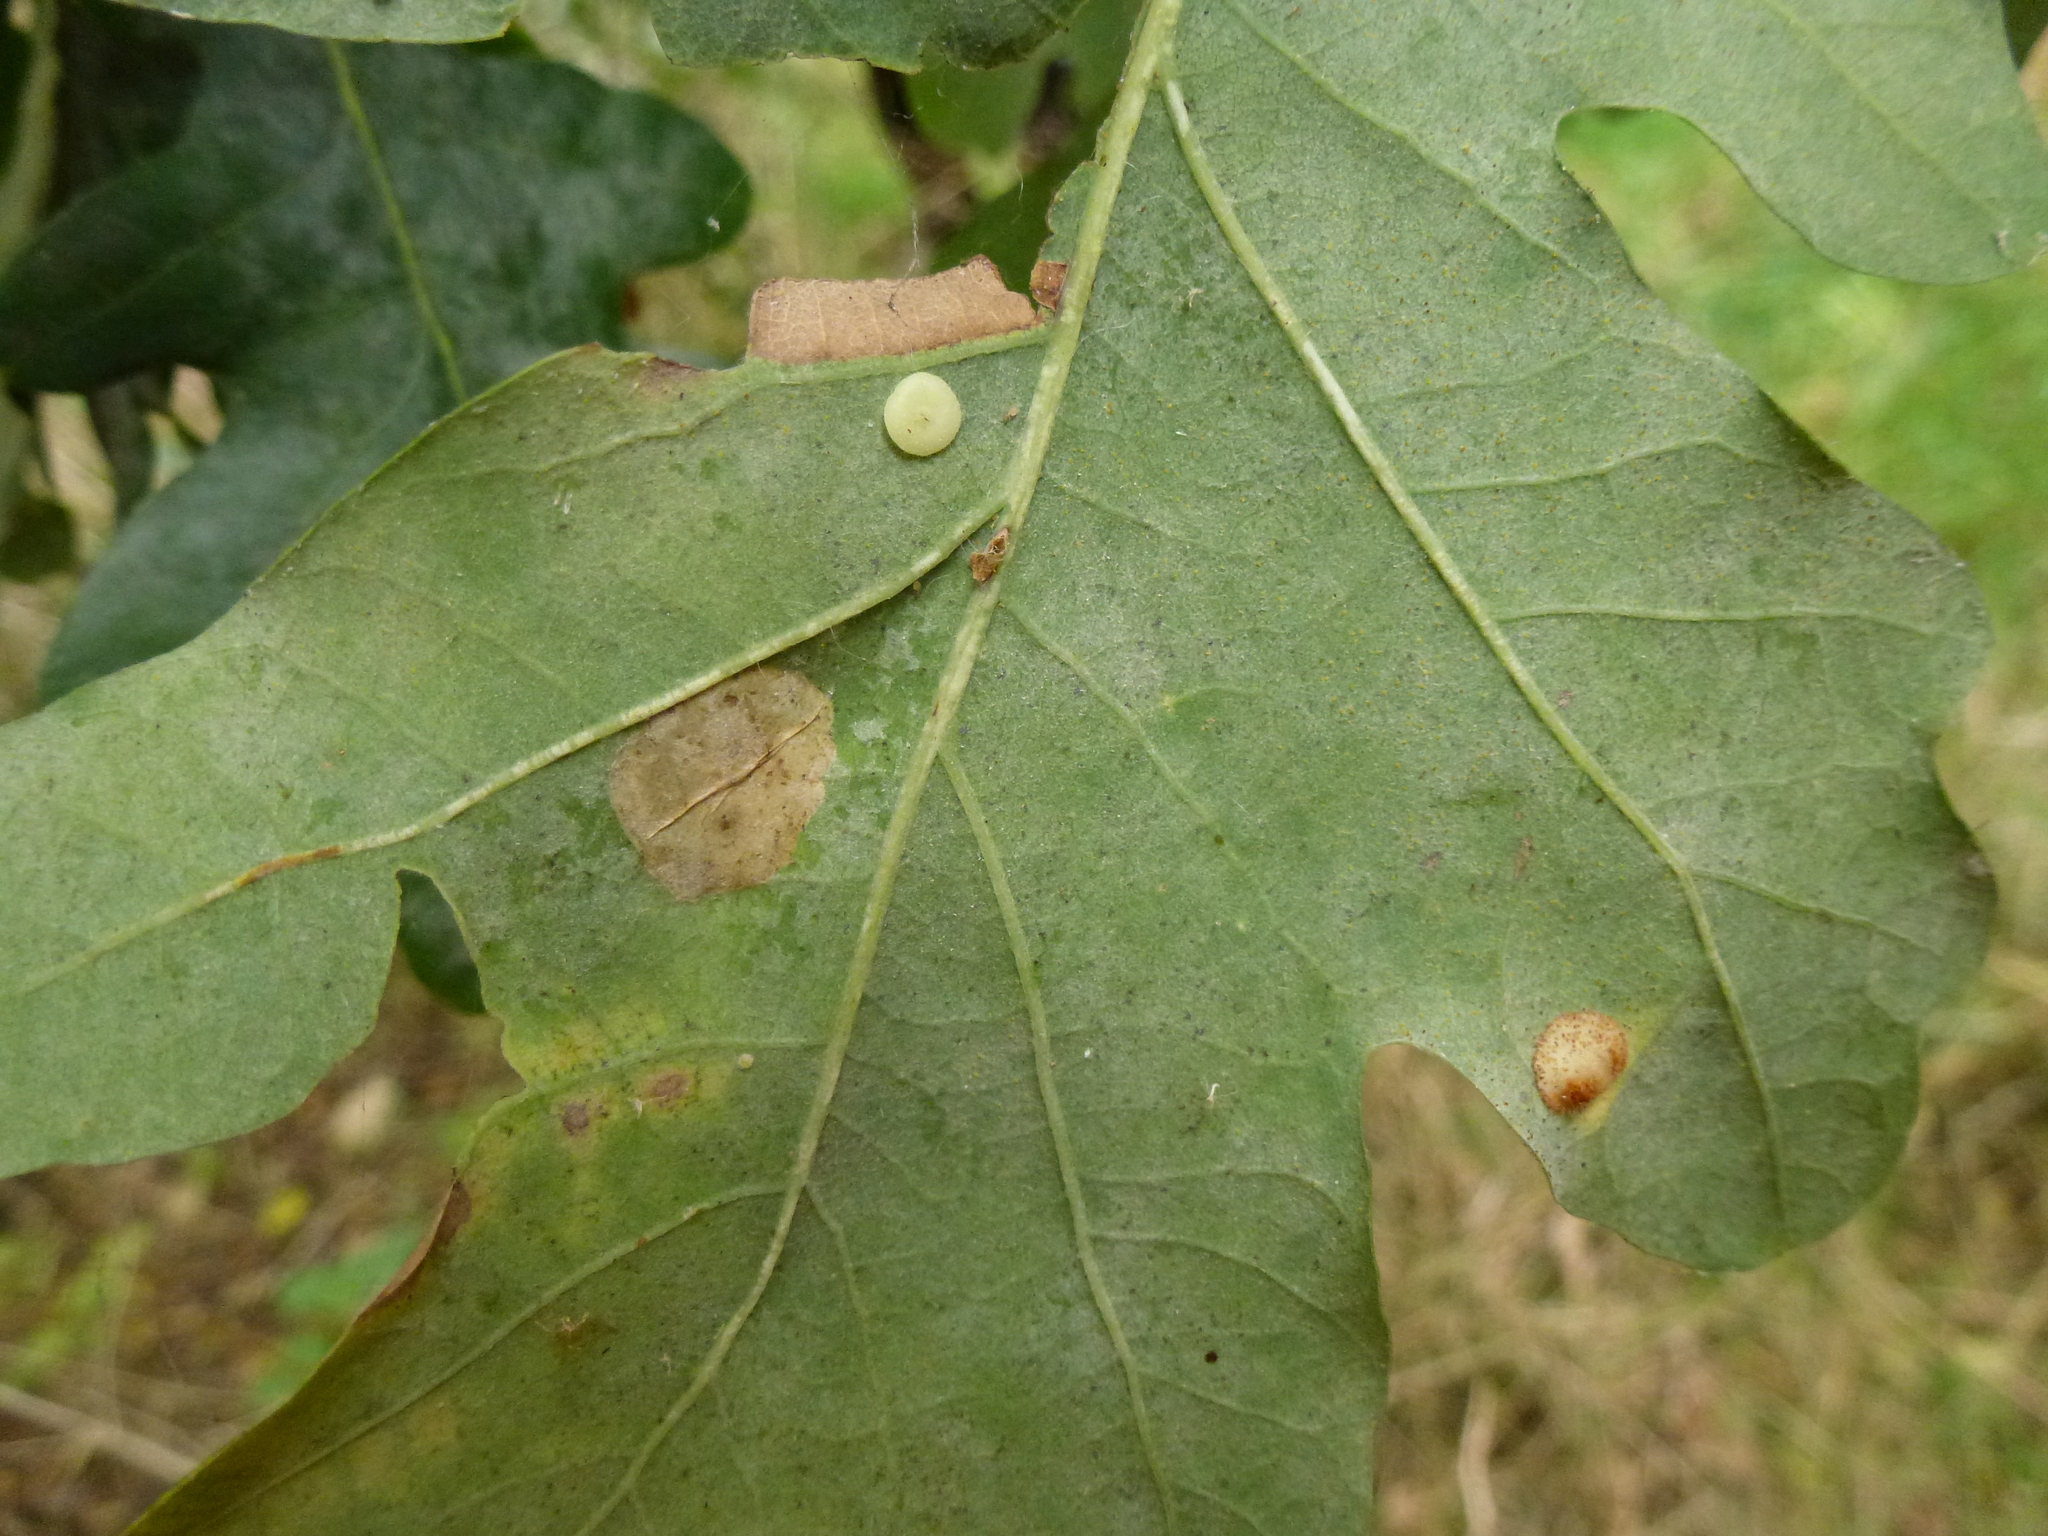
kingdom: Animalia
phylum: Arthropoda
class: Insecta
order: Hymenoptera
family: Cynipidae
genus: Neuroterus
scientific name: Neuroterus albipes
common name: Smooth spangle gall
